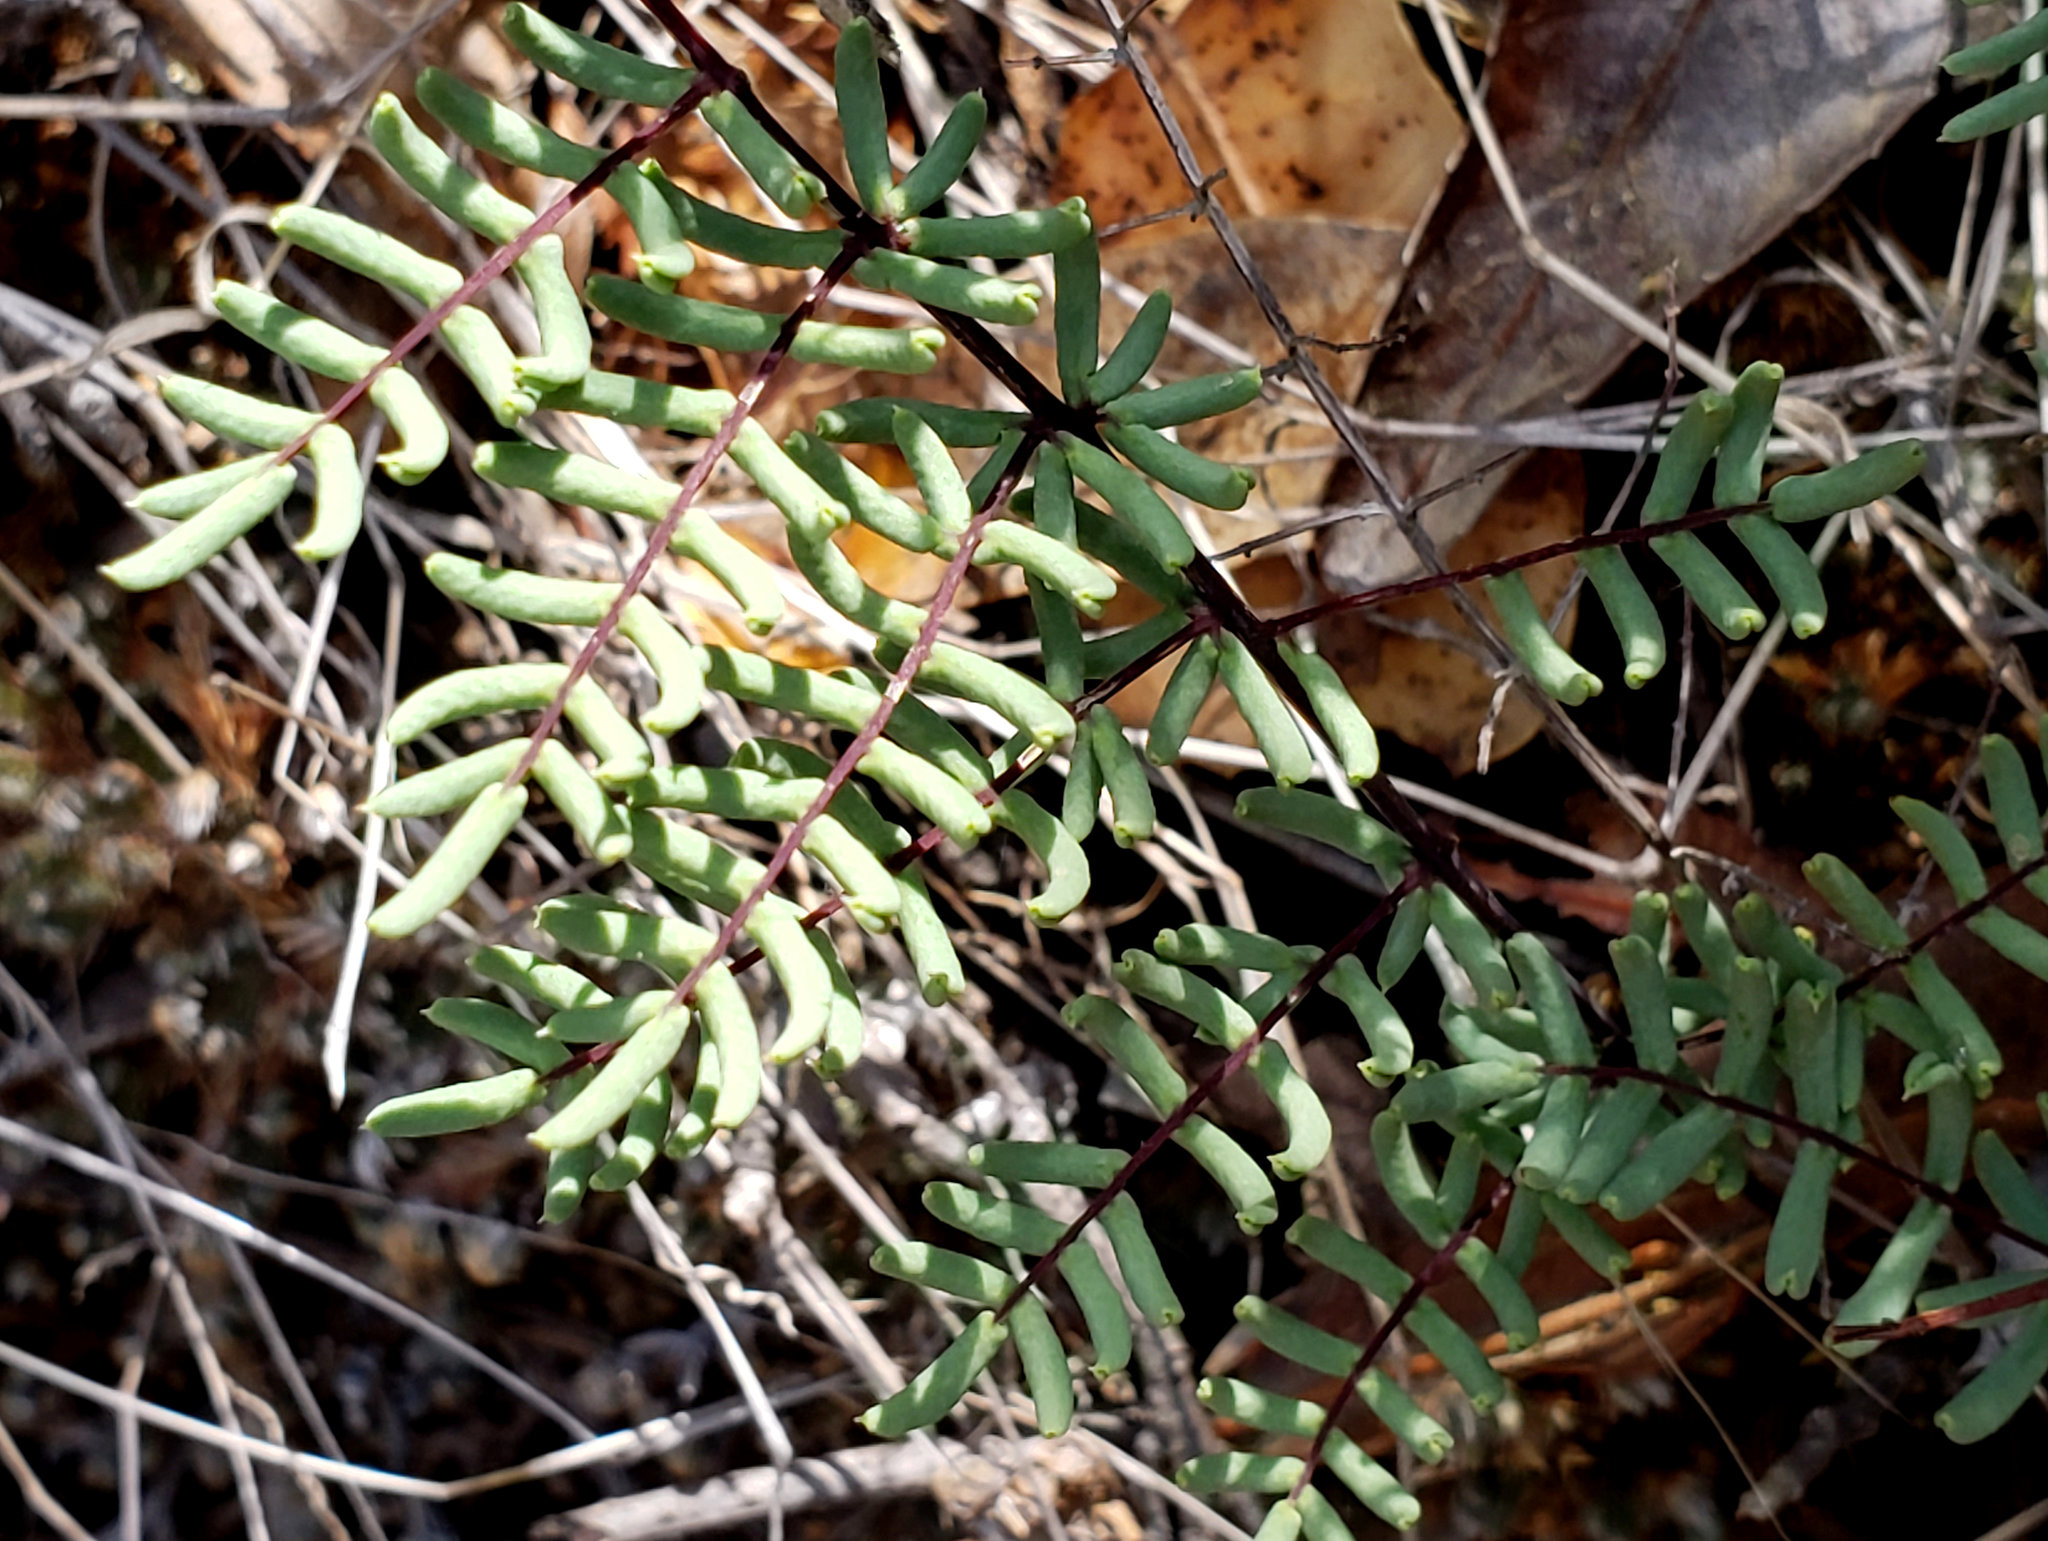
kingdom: Plantae
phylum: Tracheophyta
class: Polypodiopsida
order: Polypodiales
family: Pteridaceae
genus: Pellaea
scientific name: Pellaea mucronata
